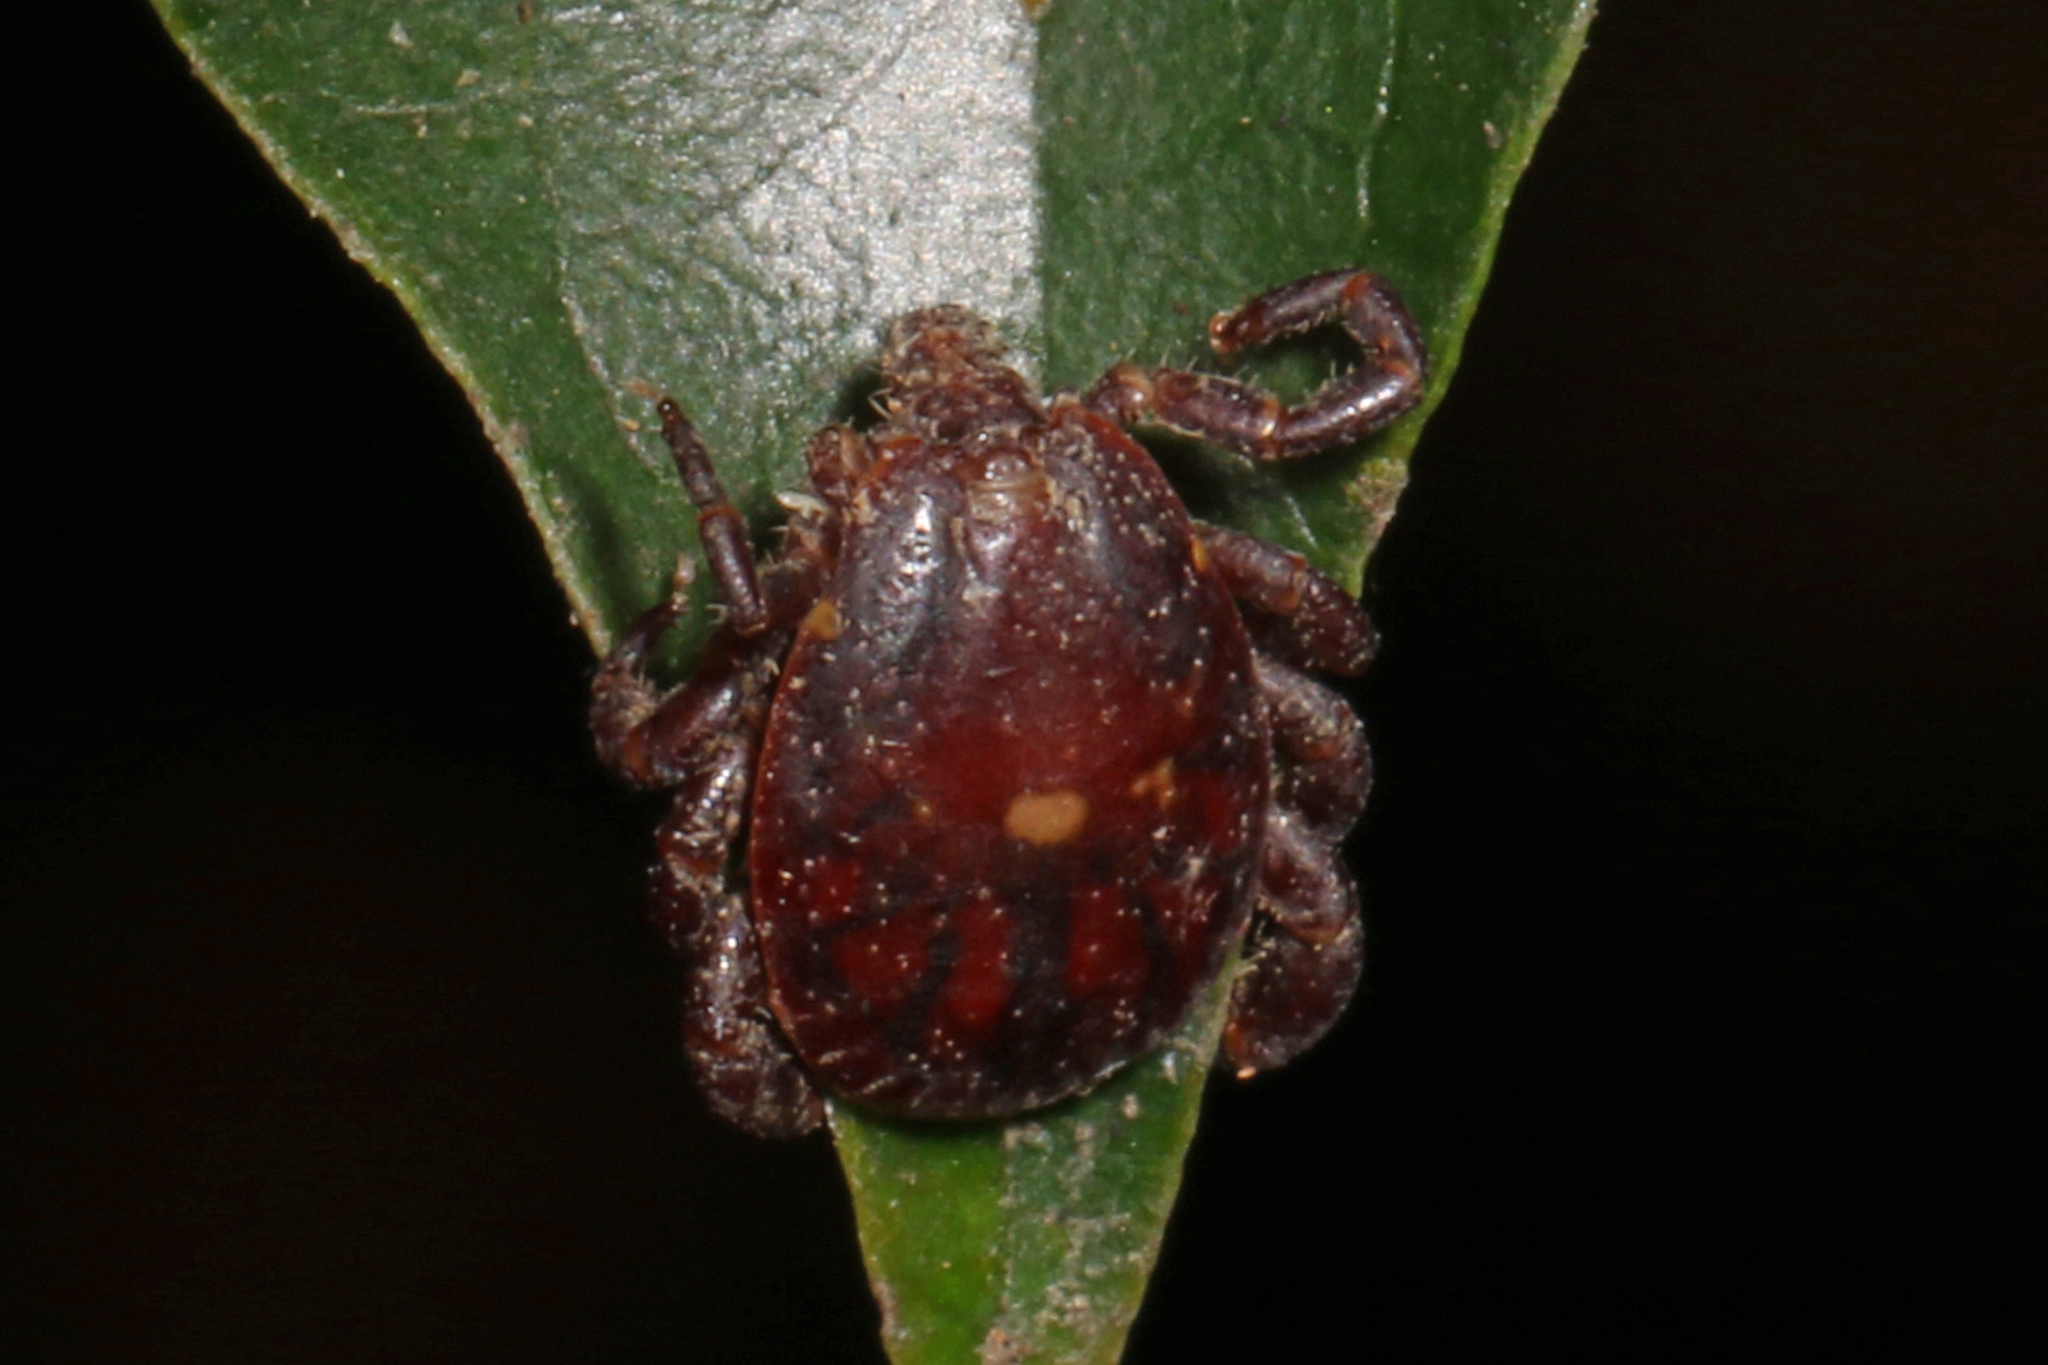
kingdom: Animalia
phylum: Arthropoda
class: Arachnida
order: Ixodida
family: Ixodidae
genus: Rhipicephalus
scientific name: Rhipicephalus maculatus
